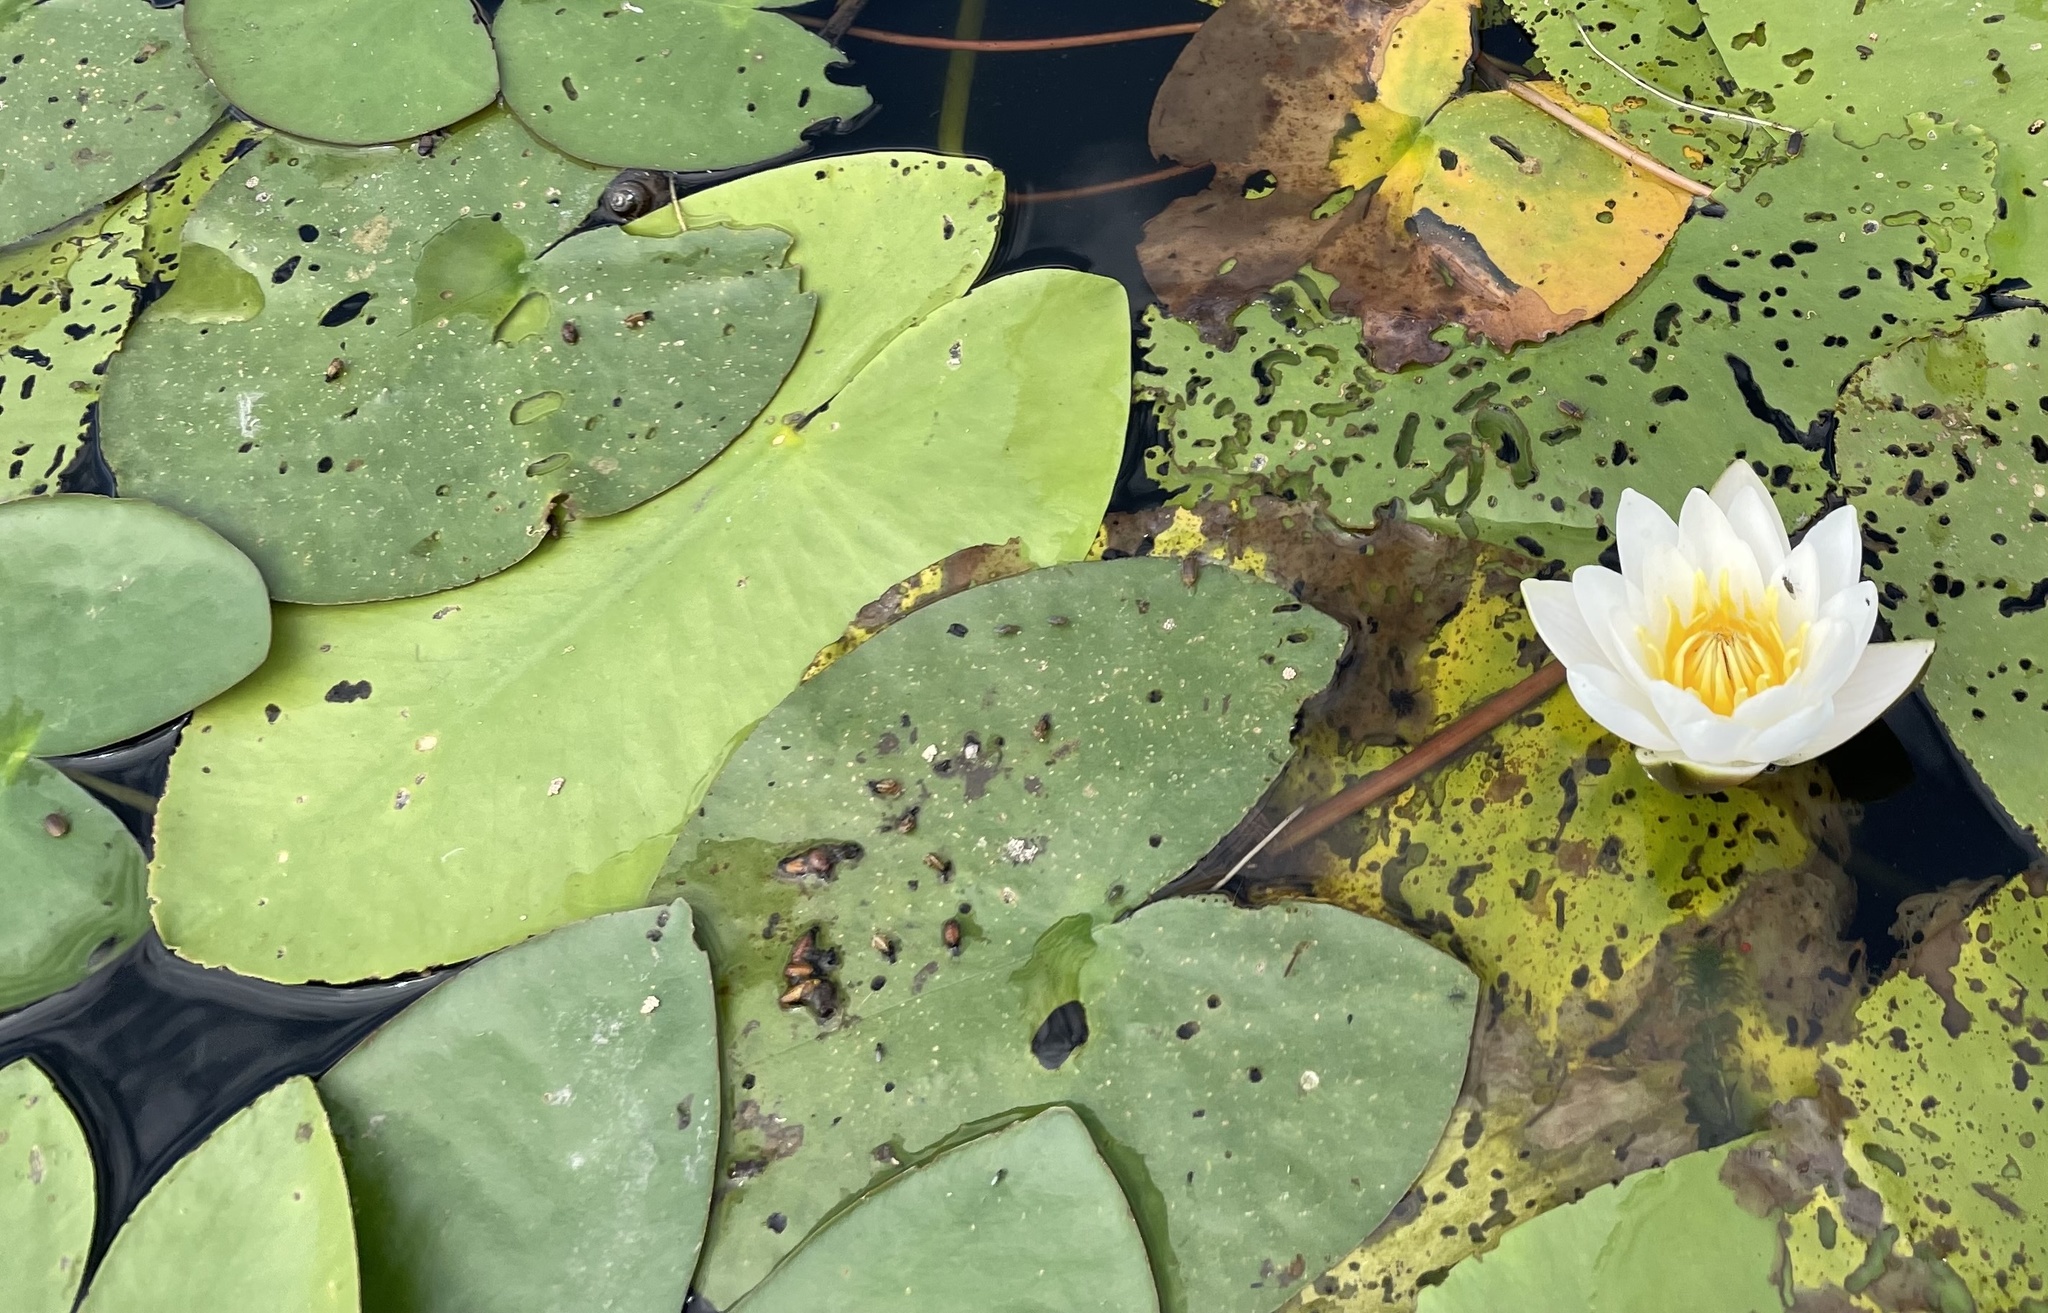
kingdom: Plantae
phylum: Tracheophyta
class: Magnoliopsida
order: Nymphaeales
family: Nymphaeaceae
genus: Nymphaea
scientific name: Nymphaea candida
